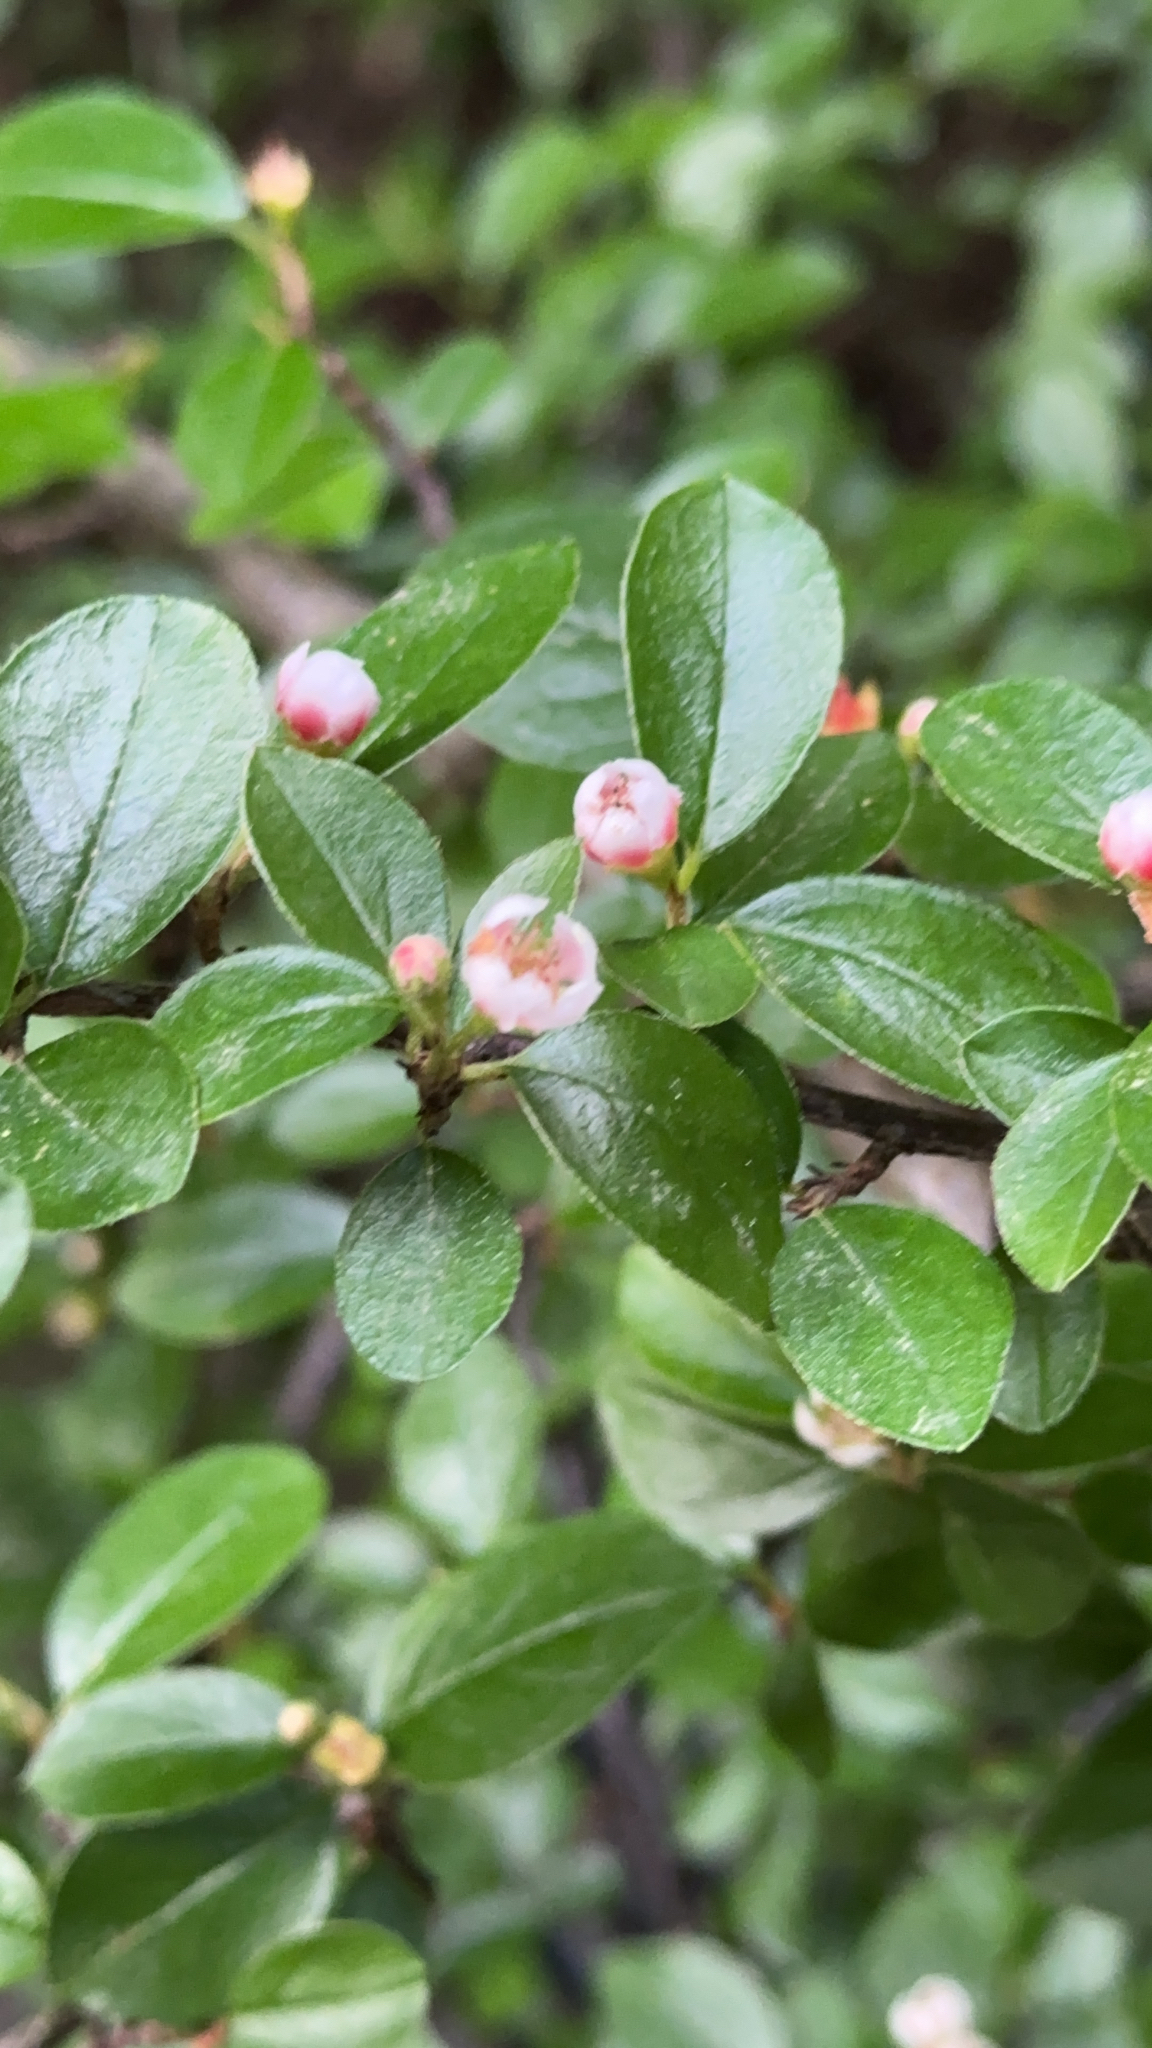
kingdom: Plantae
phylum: Tracheophyta
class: Magnoliopsida
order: Rosales
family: Rosaceae
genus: Cotoneaster
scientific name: Cotoneaster divaricatus
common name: Spreading cotoneaster
